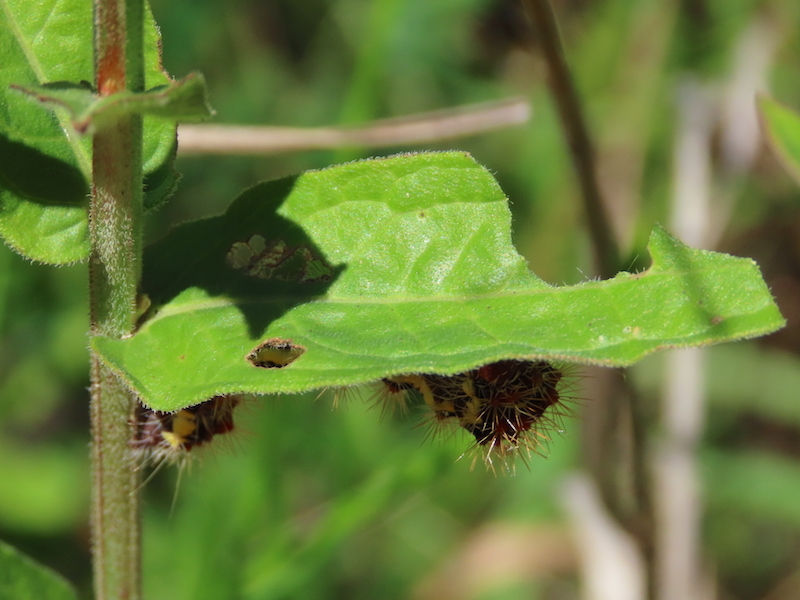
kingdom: Animalia
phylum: Arthropoda
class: Insecta
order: Lepidoptera
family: Noctuidae
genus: Acronicta
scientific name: Acronicta oblinita
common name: Smeared dagger
